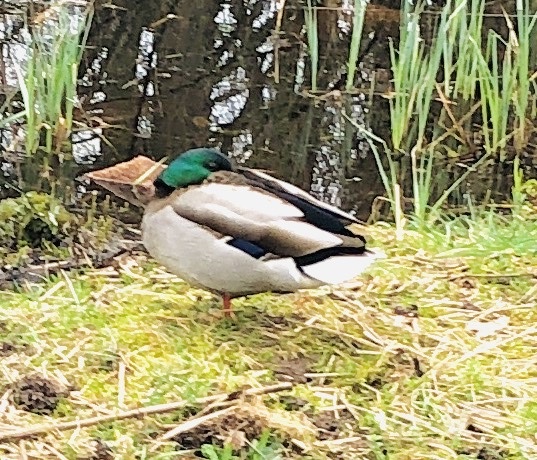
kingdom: Animalia
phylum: Chordata
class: Aves
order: Anseriformes
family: Anatidae
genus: Anas
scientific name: Anas platyrhynchos
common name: Mallard
